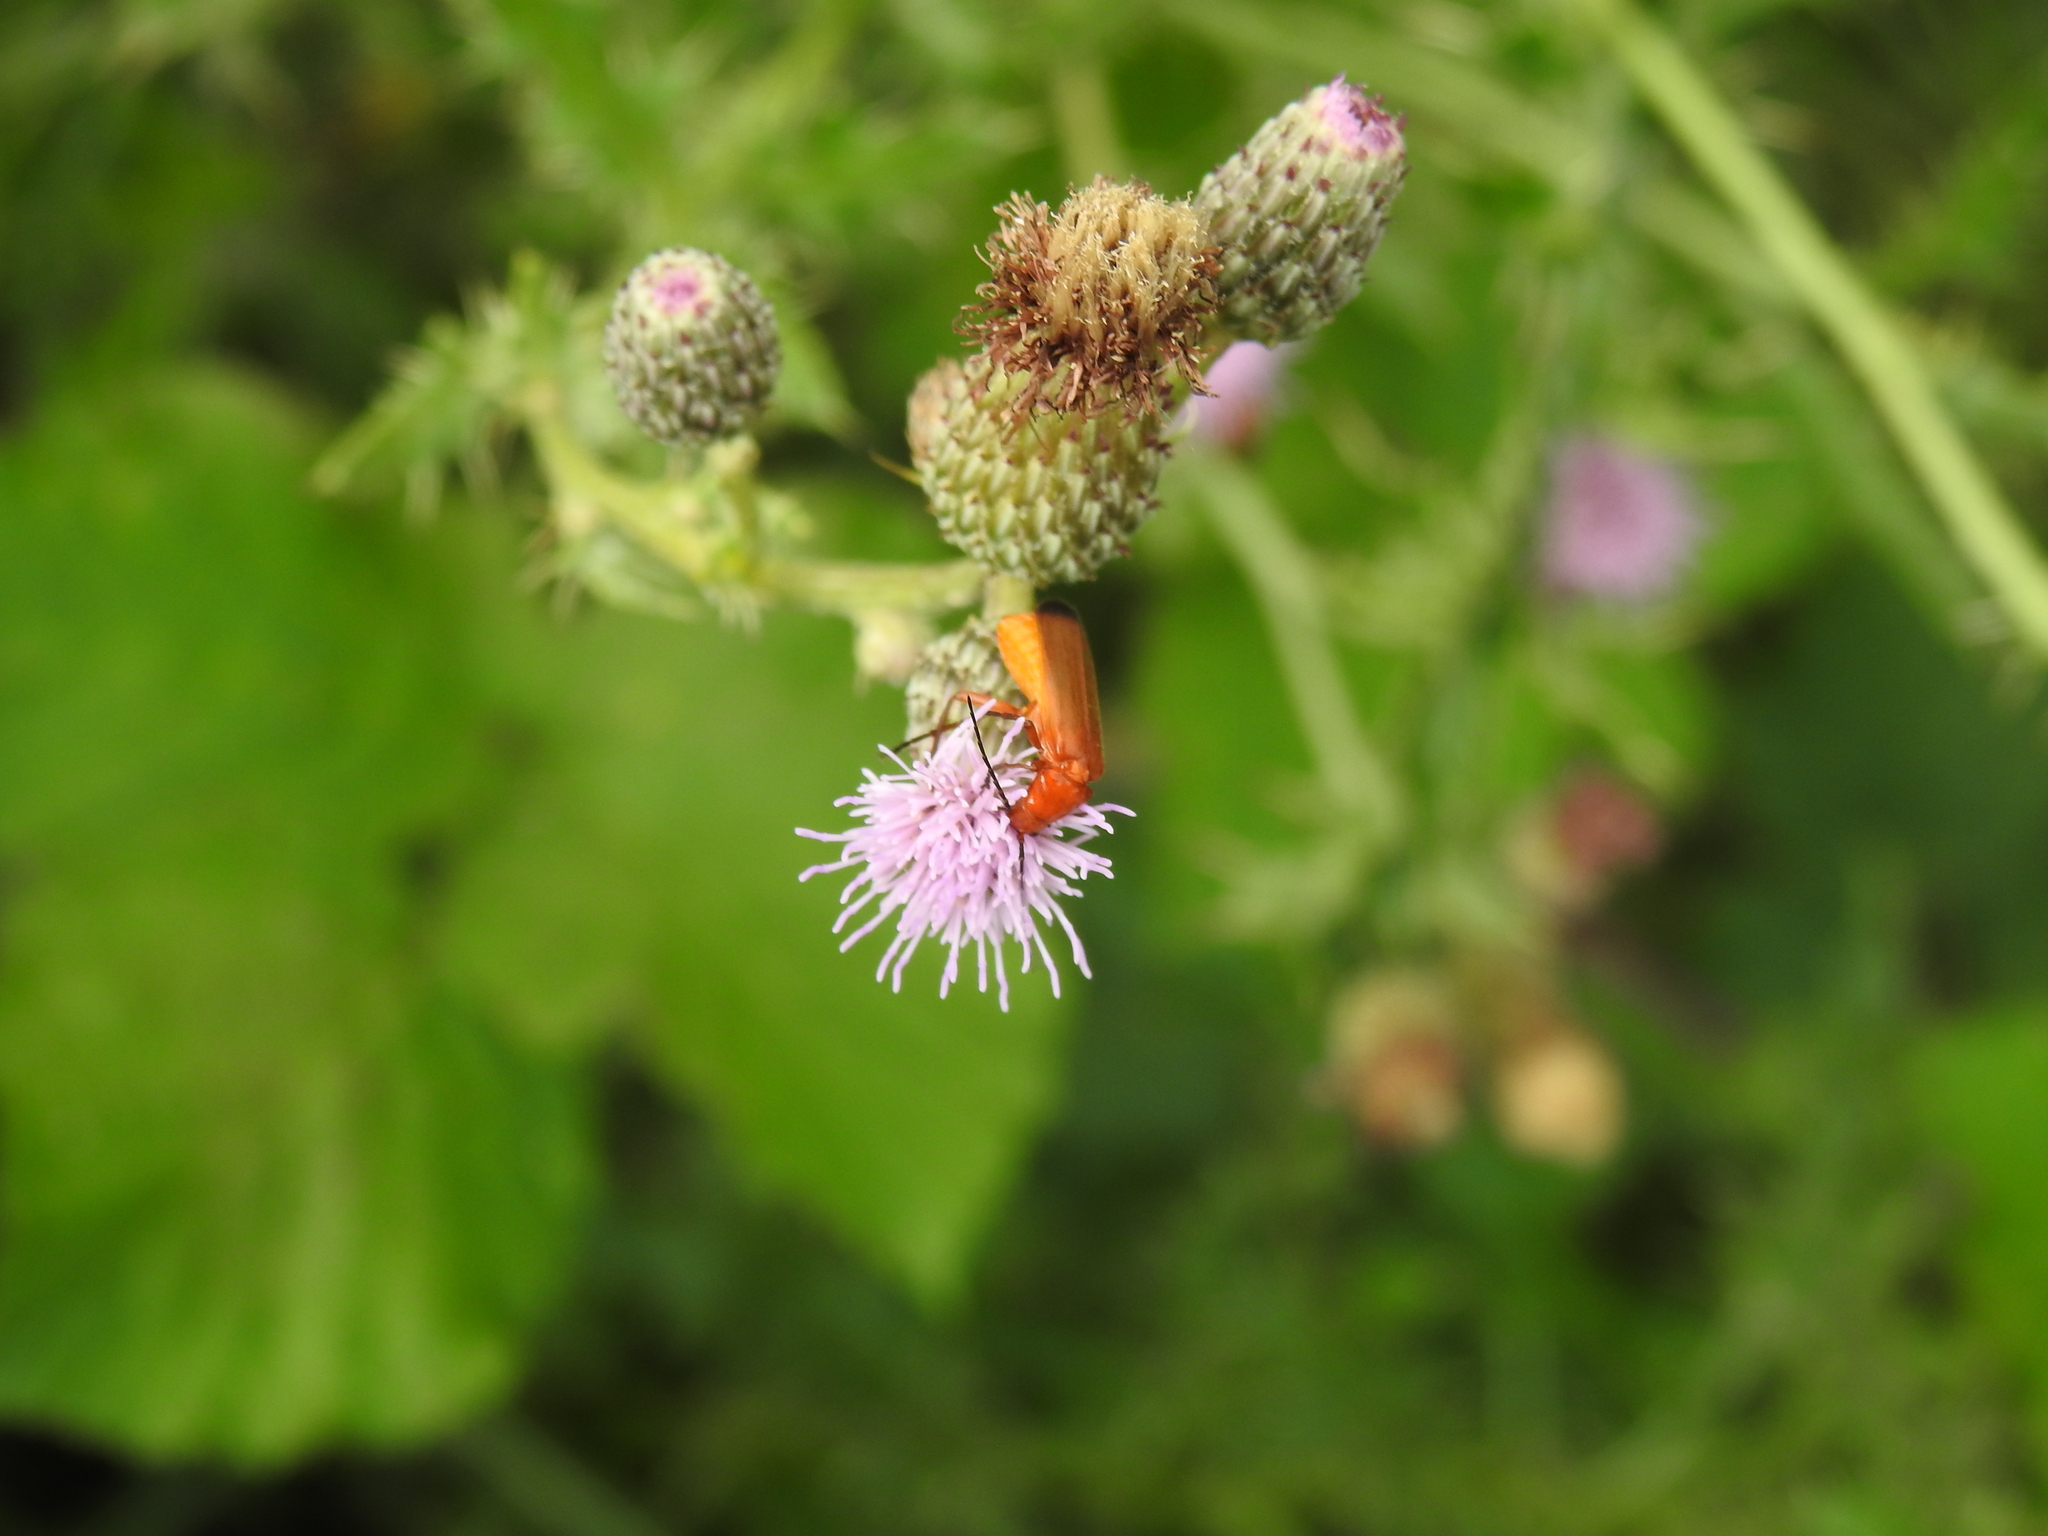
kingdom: Animalia
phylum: Arthropoda
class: Insecta
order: Coleoptera
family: Cantharidae
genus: Rhagonycha
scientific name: Rhagonycha fulva
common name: Common red soldier beetle
